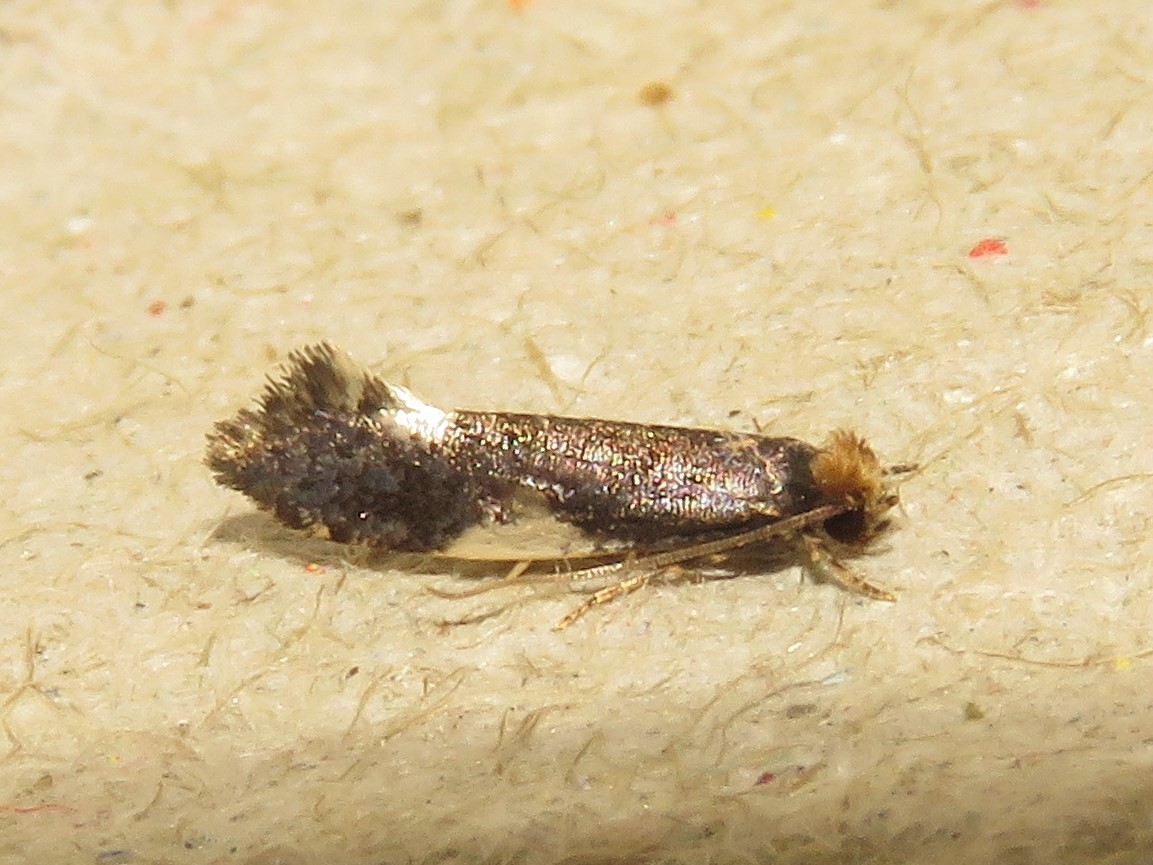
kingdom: Animalia
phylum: Arthropoda
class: Insecta
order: Lepidoptera
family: Tineidae
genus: Monopis
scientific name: Monopis spilotella
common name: Orange-headed monopis
